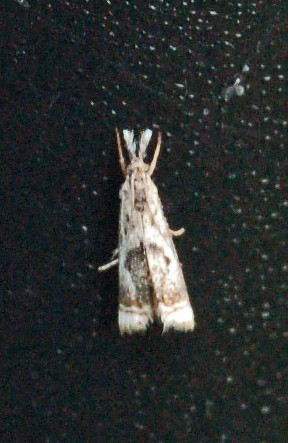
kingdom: Animalia
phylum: Arthropoda
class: Insecta
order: Lepidoptera
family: Crambidae
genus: Microcrambus
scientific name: Microcrambus elegans
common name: Elegant grass-veneer
